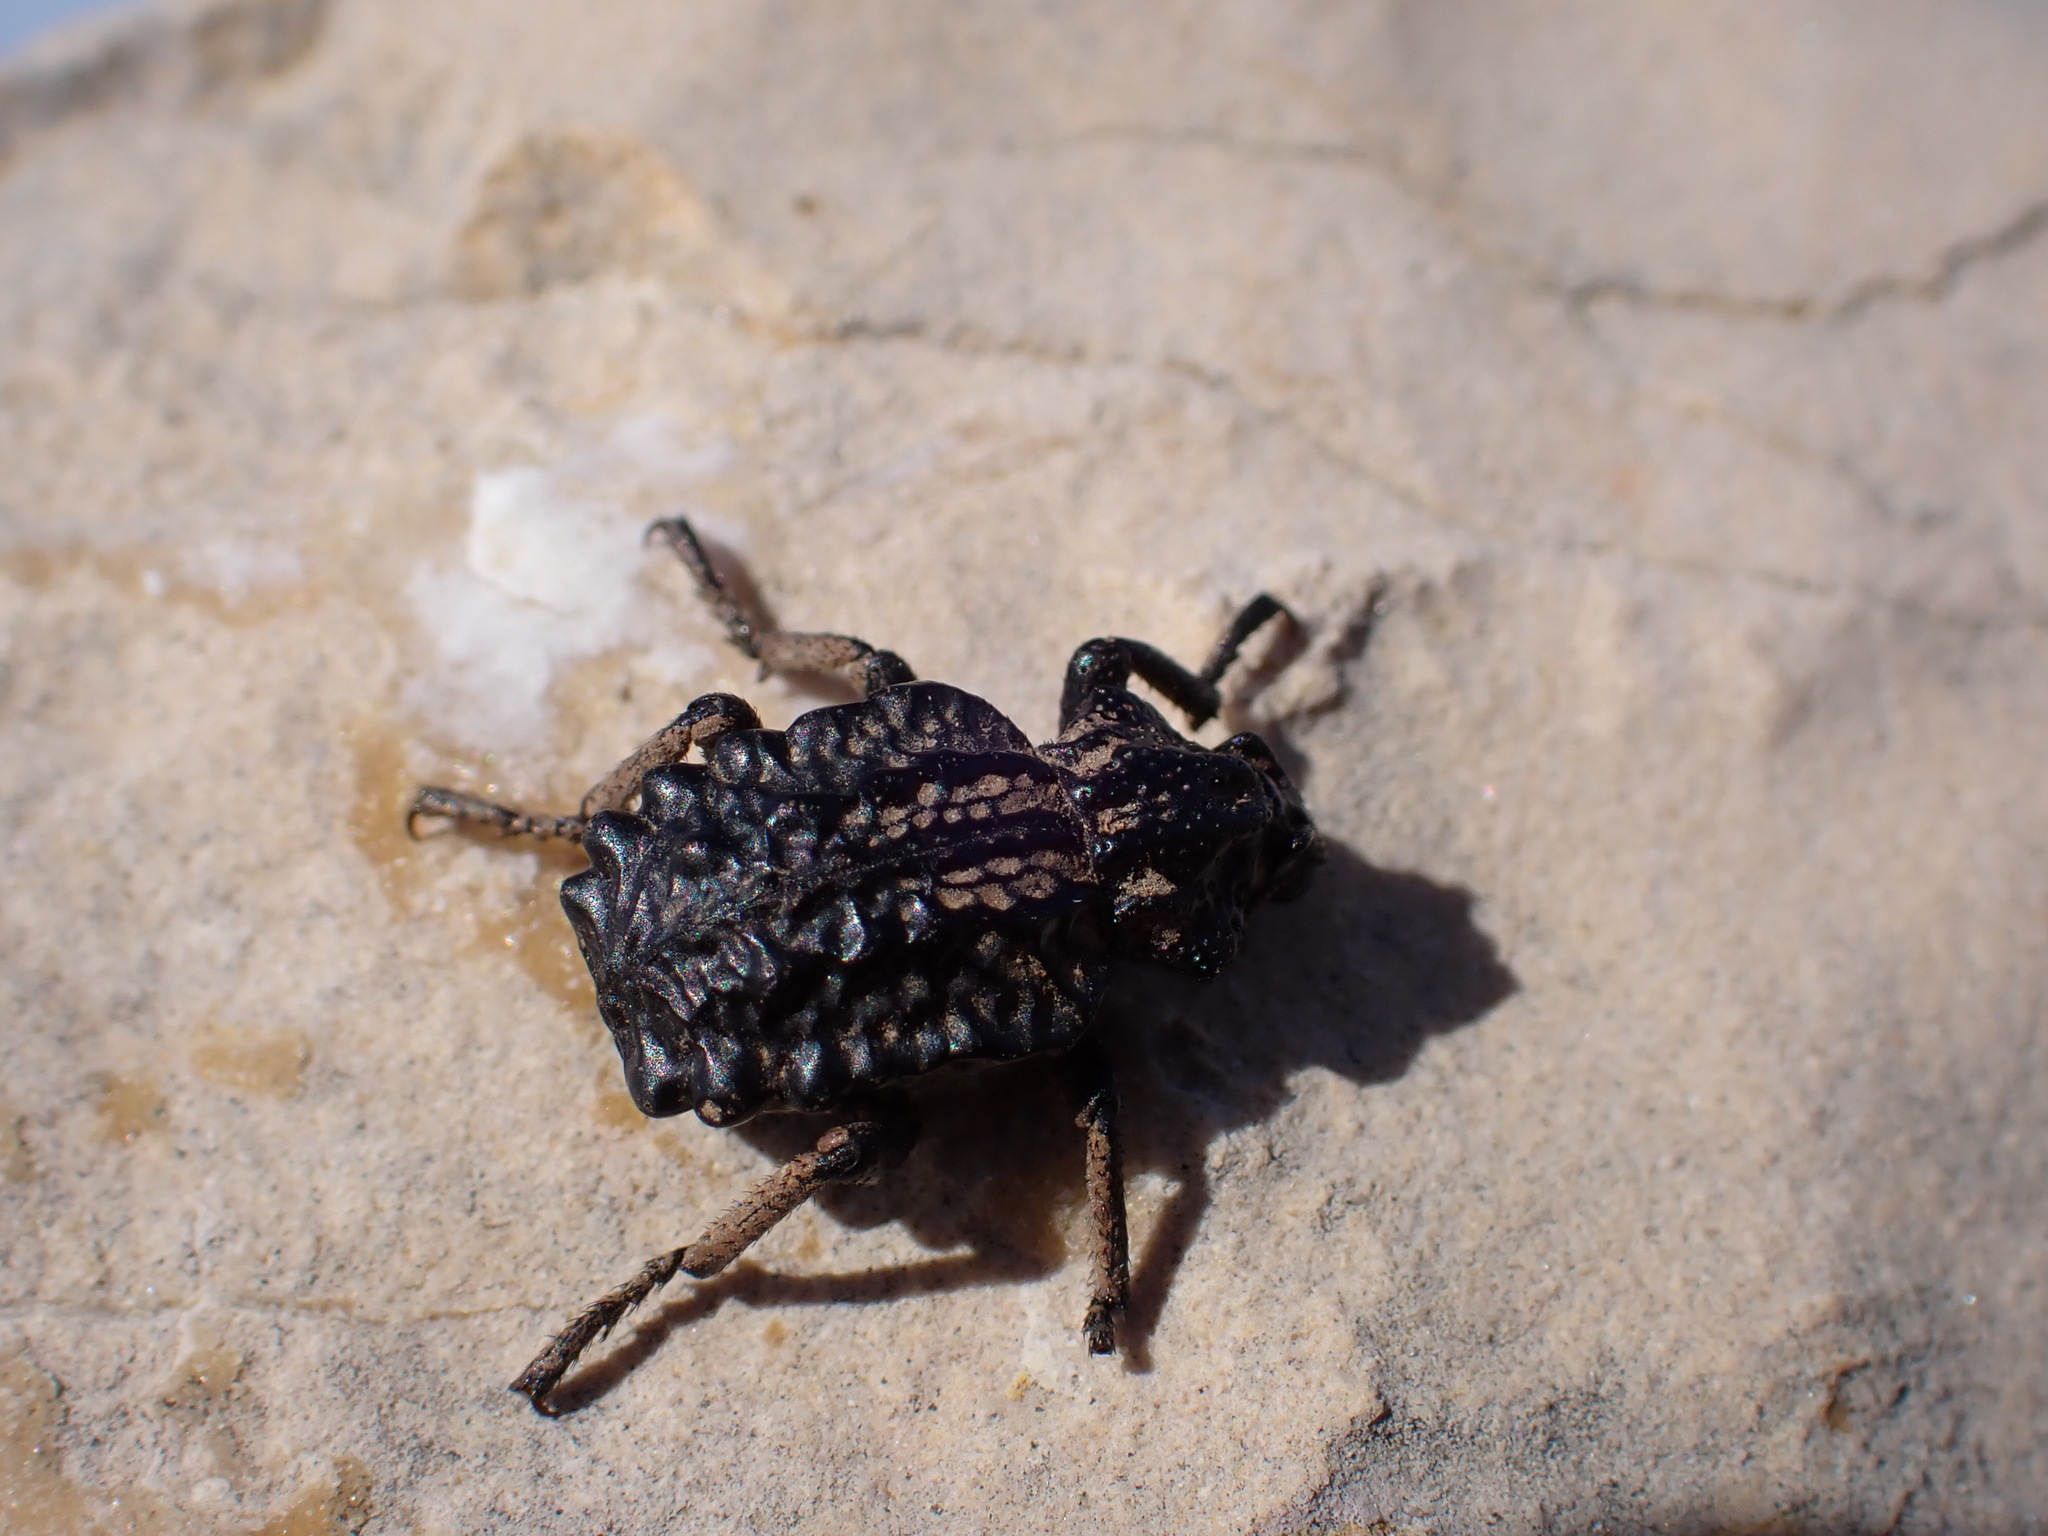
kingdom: Animalia
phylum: Arthropoda
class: Insecta
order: Coleoptera
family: Brachyceridae
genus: Brachycerus
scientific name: Brachycerus undatus
